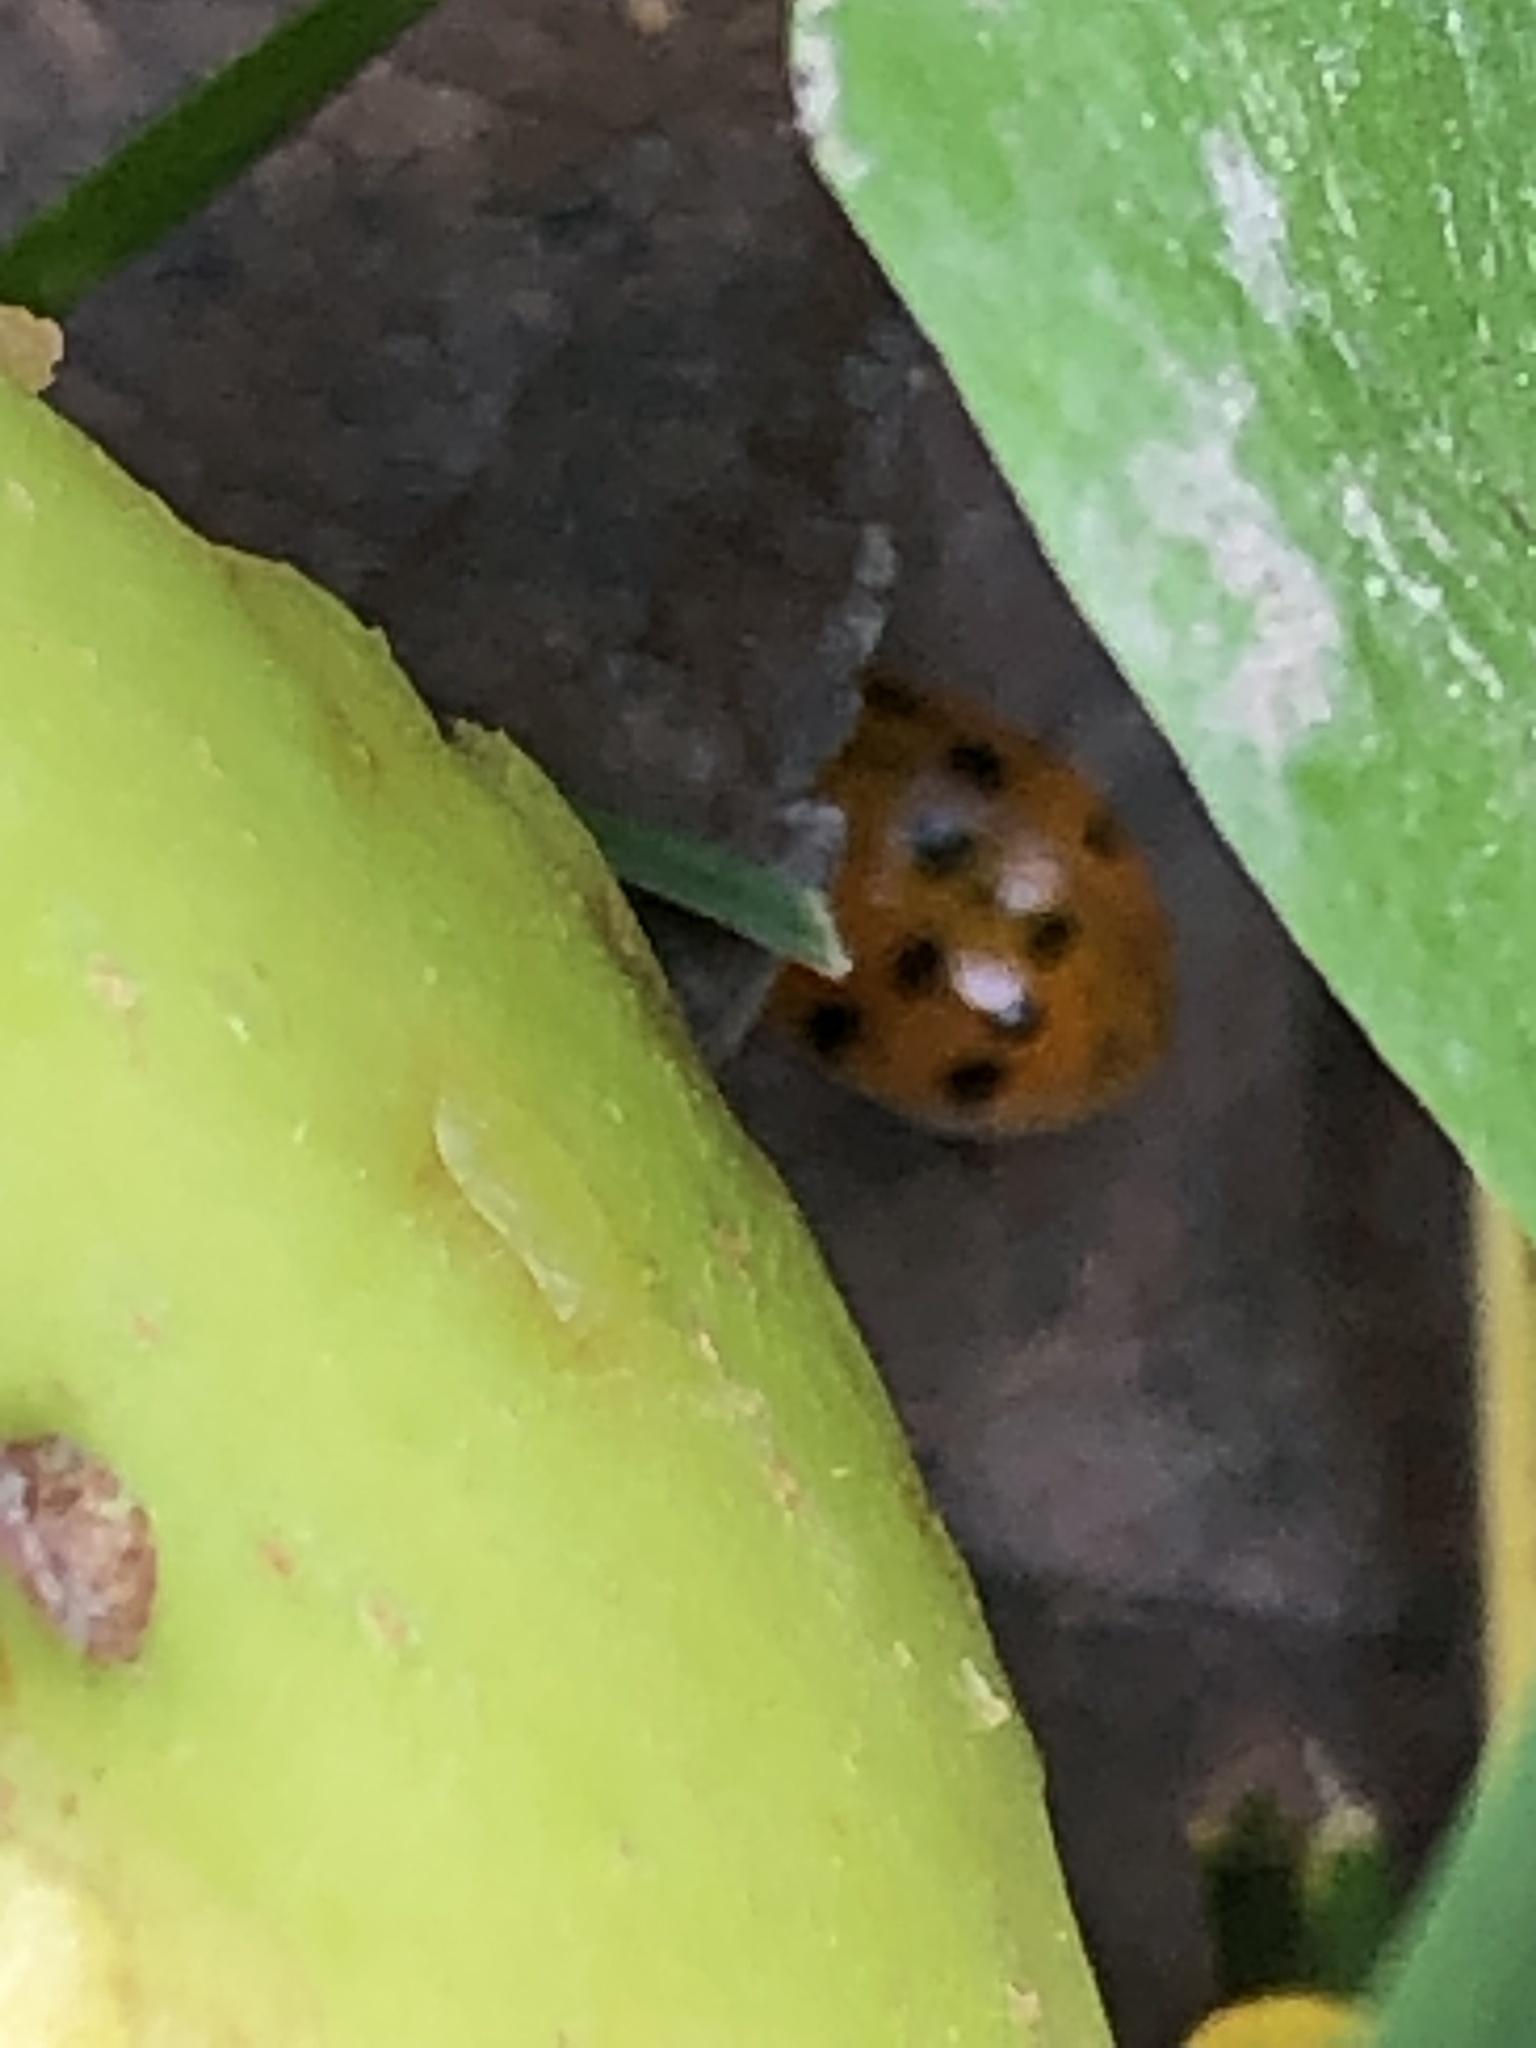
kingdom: Animalia
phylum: Arthropoda
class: Insecta
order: Coleoptera
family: Coccinellidae
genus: Harmonia
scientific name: Harmonia axyridis
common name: Harlequin ladybird
